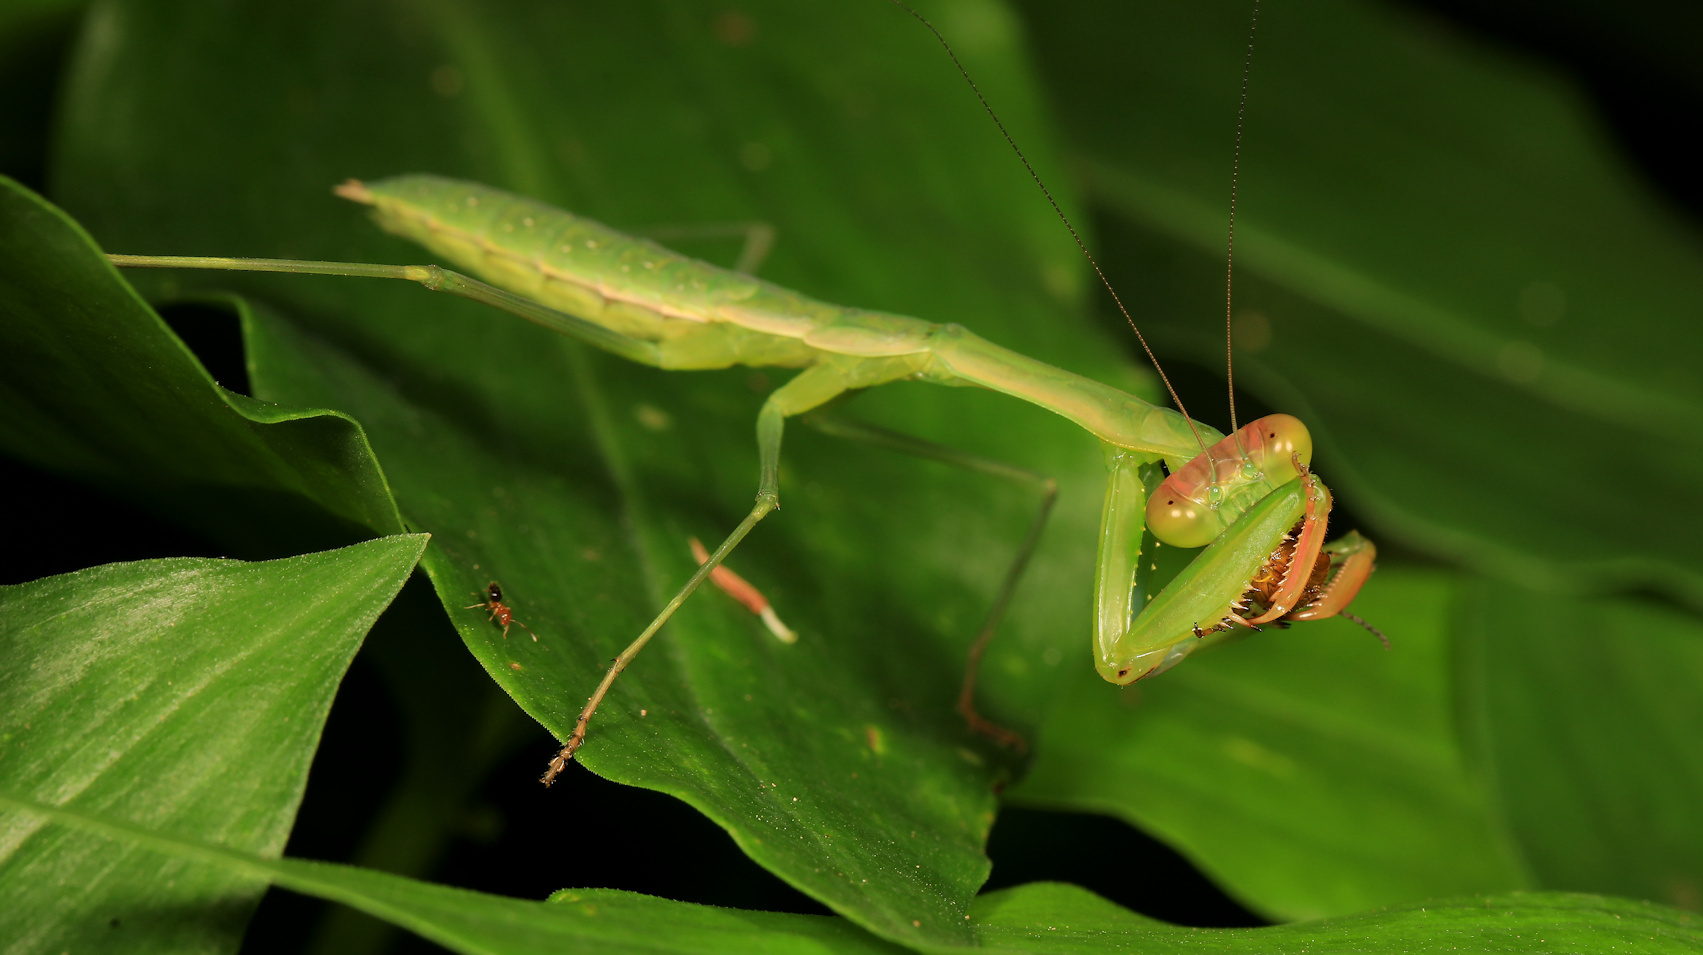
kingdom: Animalia
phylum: Arthropoda
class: Insecta
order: Mantodea
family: Mantidae
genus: Polyspilota
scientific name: Polyspilota aeruginosa
